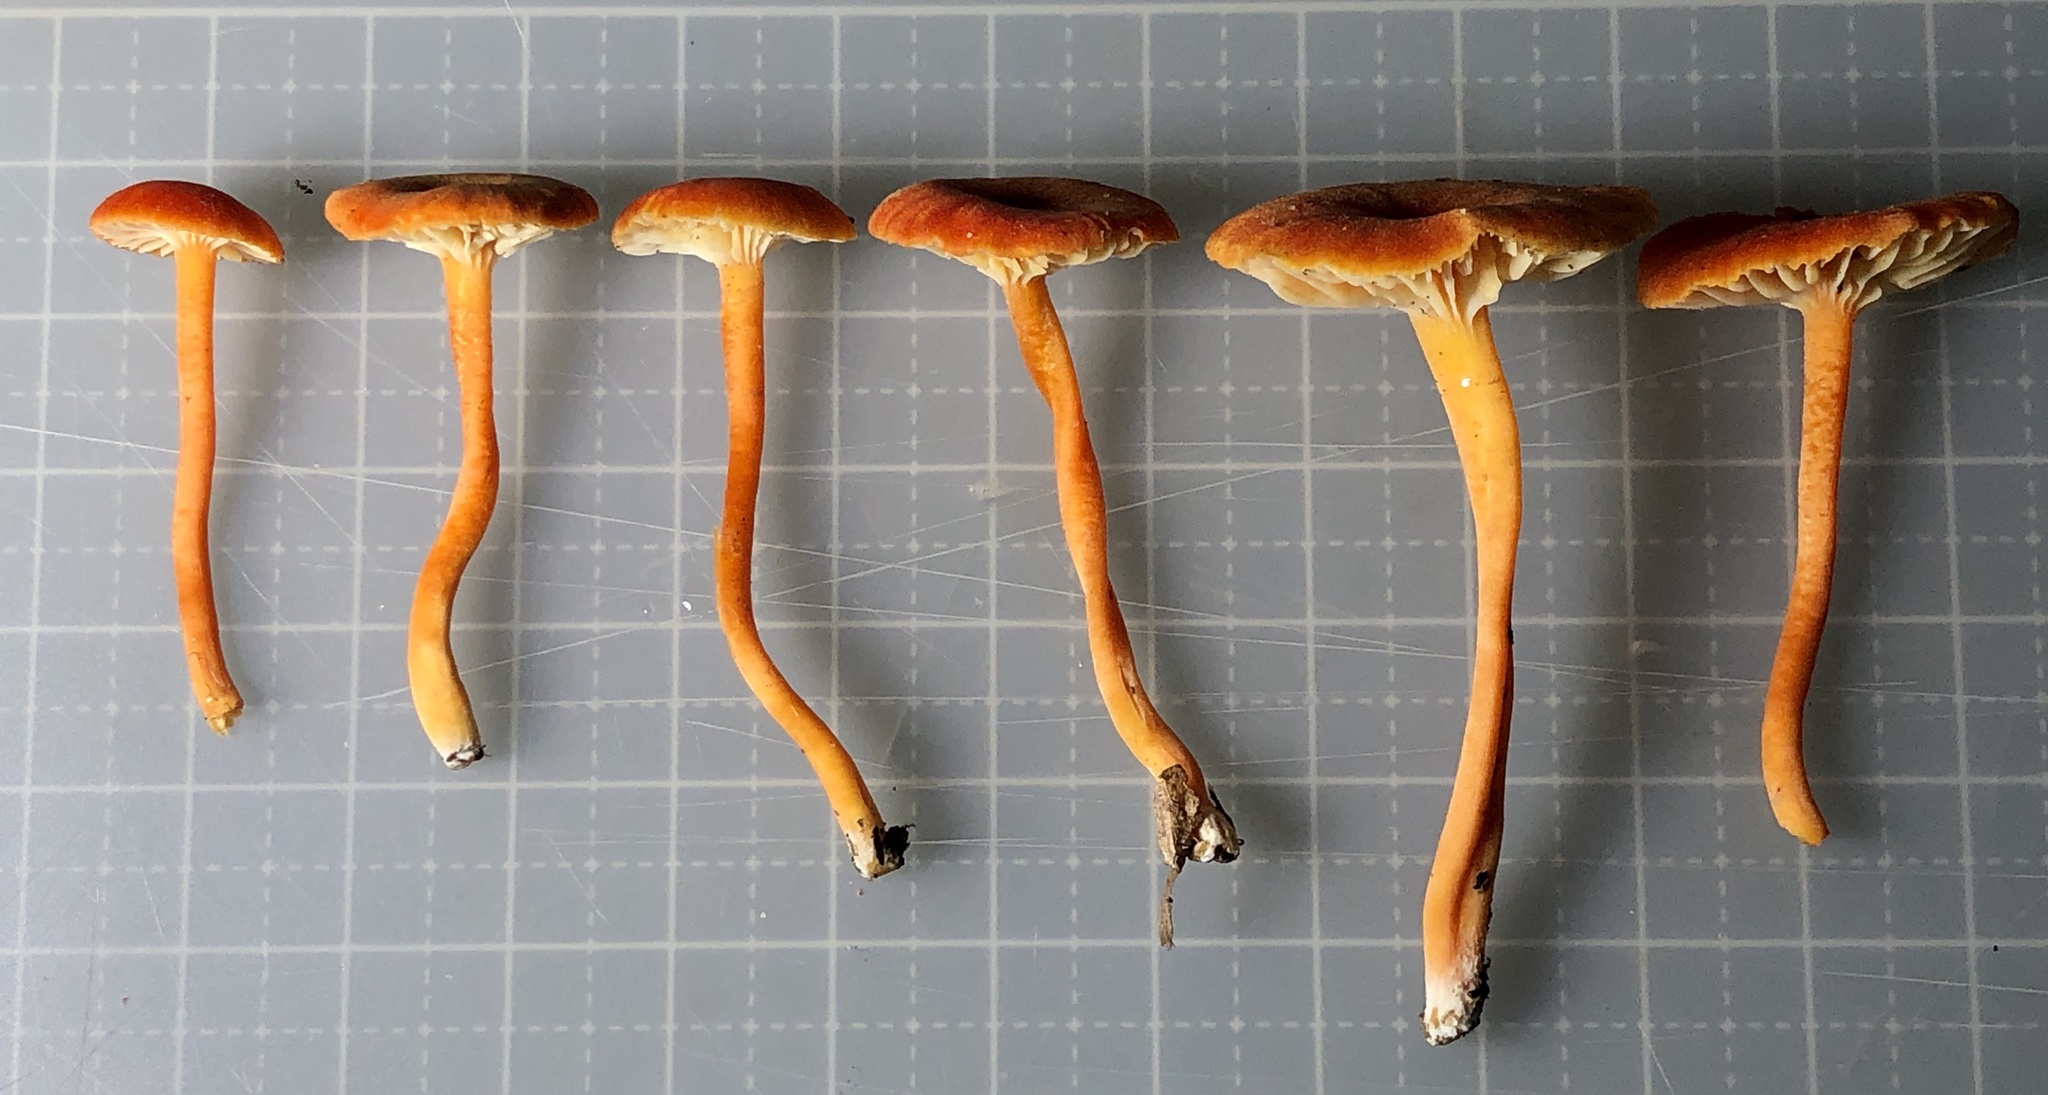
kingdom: Fungi
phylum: Basidiomycota
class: Agaricomycetes
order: Agaricales
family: Hygrophoraceae
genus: Hygrocybe
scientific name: Hygrocybe miniata
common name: Vermilion waxcap
